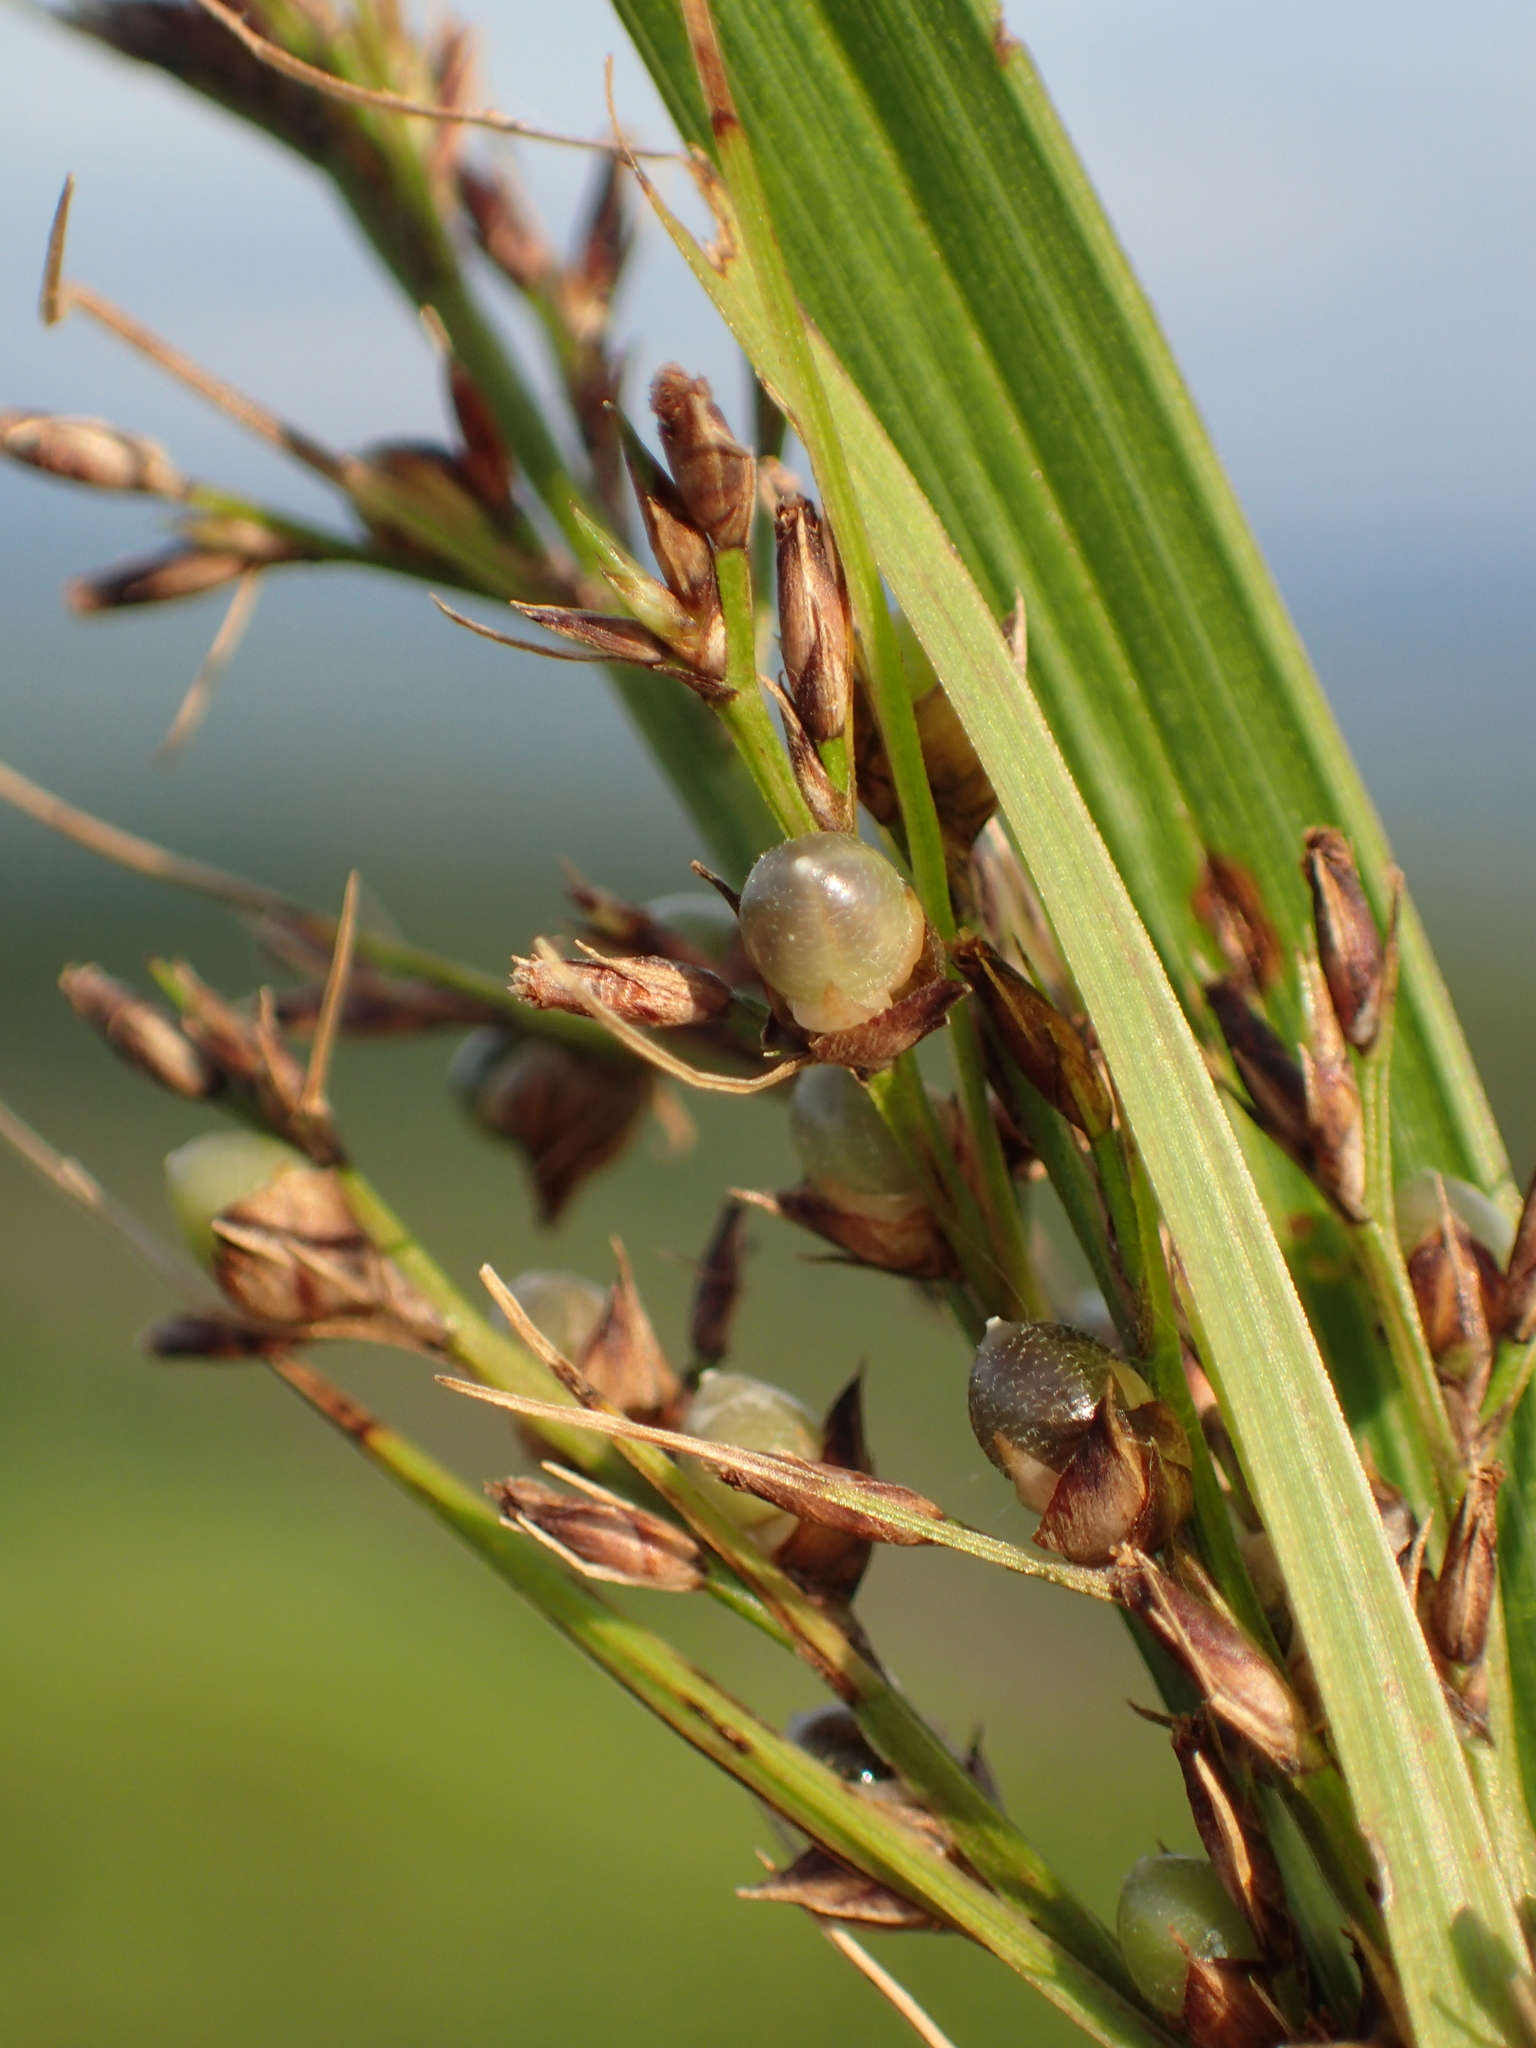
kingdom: Plantae
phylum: Tracheophyta
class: Liliopsida
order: Poales
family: Cyperaceae
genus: Scleria
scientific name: Scleria terrestris
